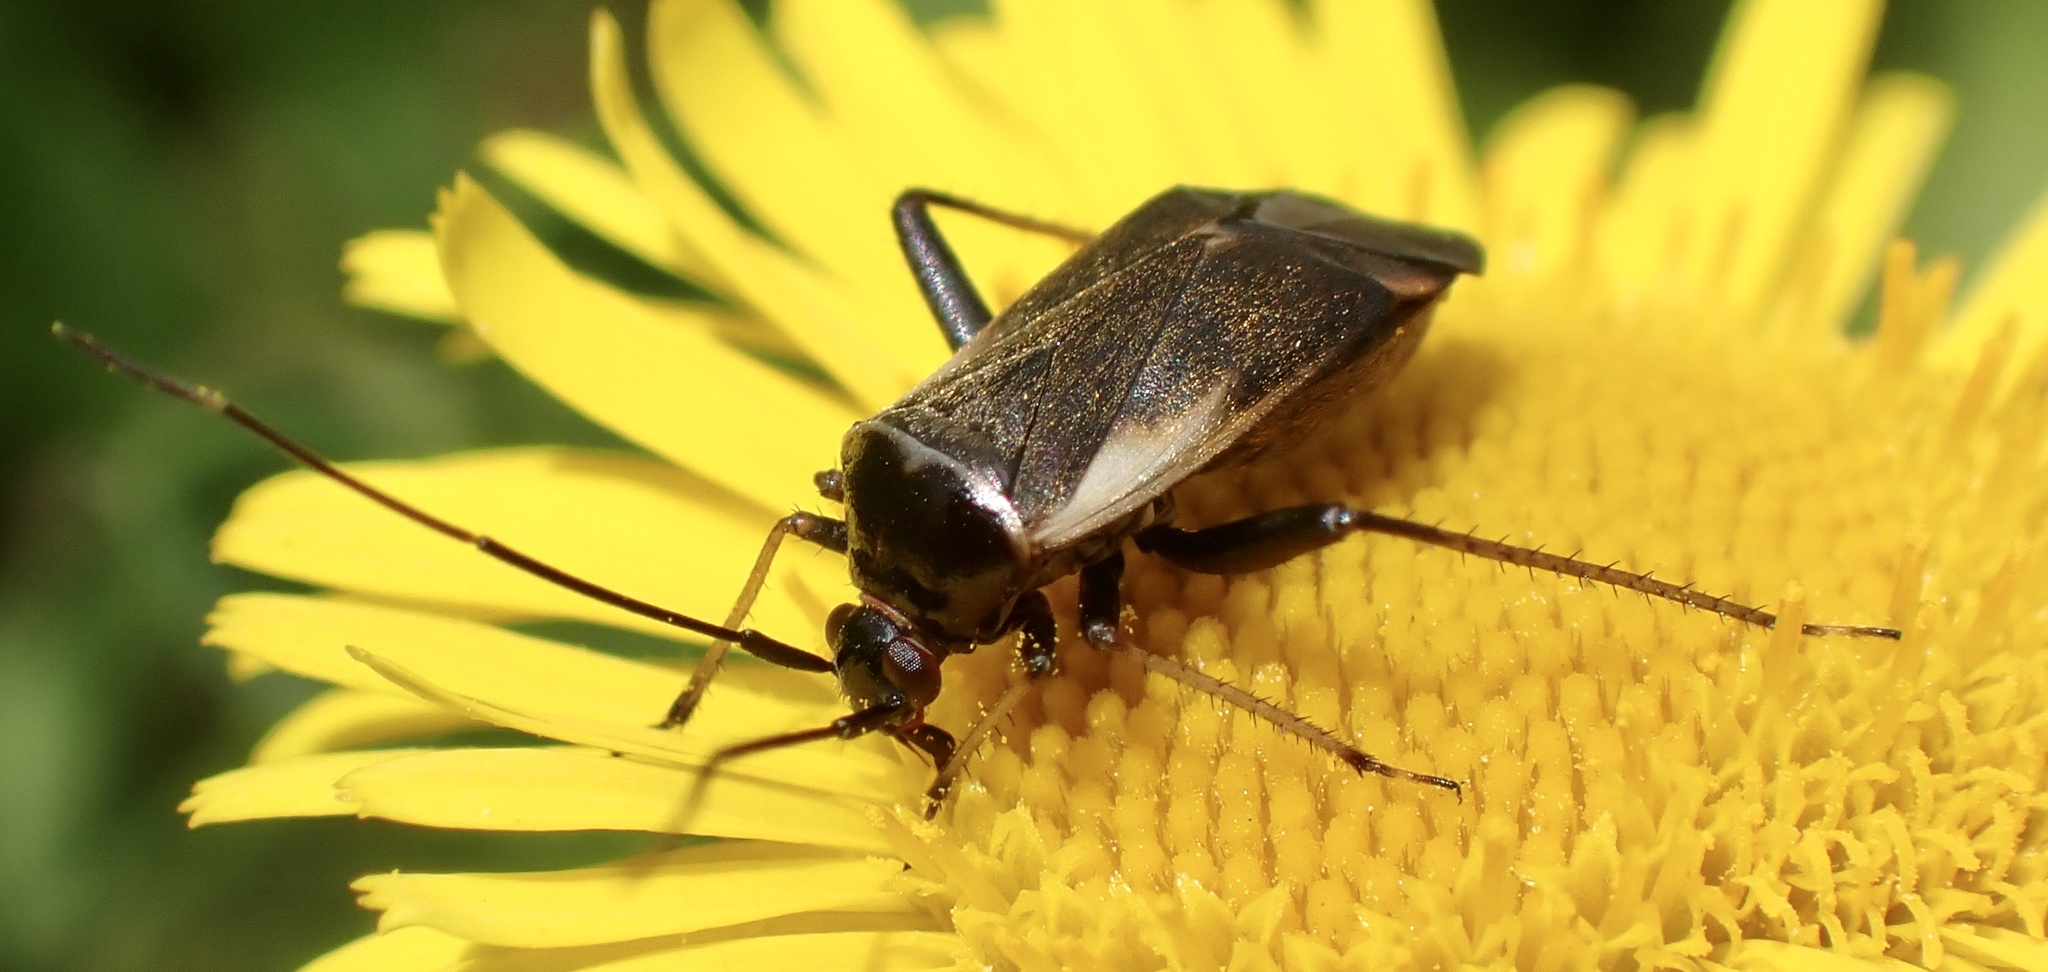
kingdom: Animalia
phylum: Arthropoda
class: Insecta
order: Hemiptera
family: Miridae
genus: Adelphocoris
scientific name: Adelphocoris seticornis
